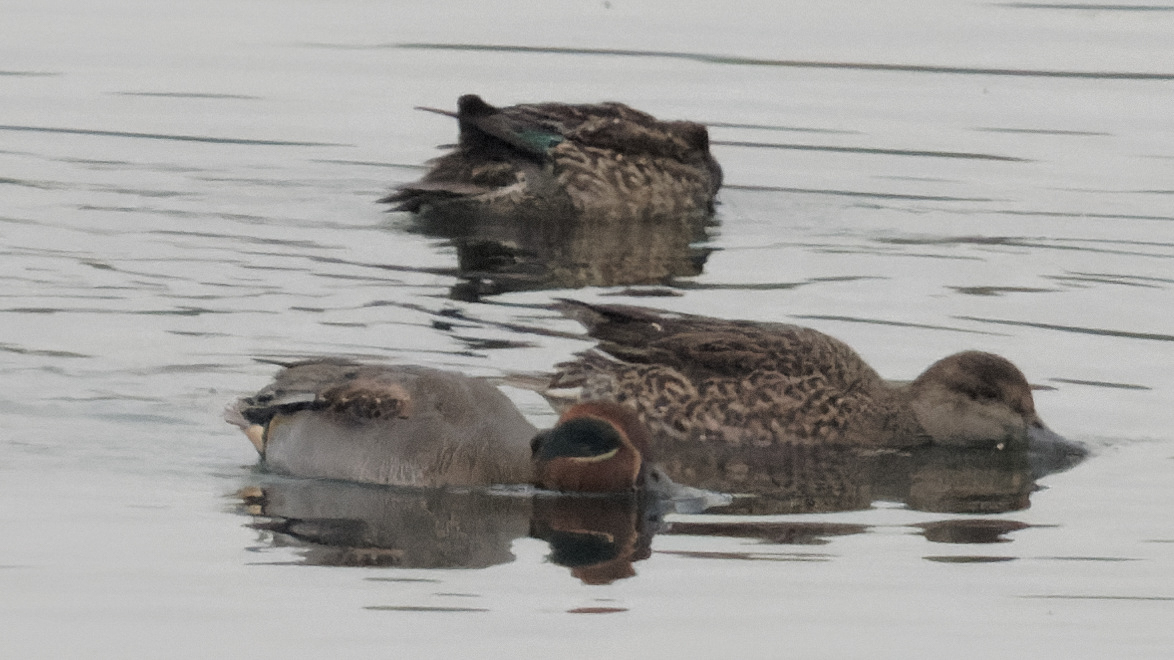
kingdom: Animalia
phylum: Chordata
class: Aves
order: Anseriformes
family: Anatidae
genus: Anas
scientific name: Anas crecca
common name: Eurasian teal
